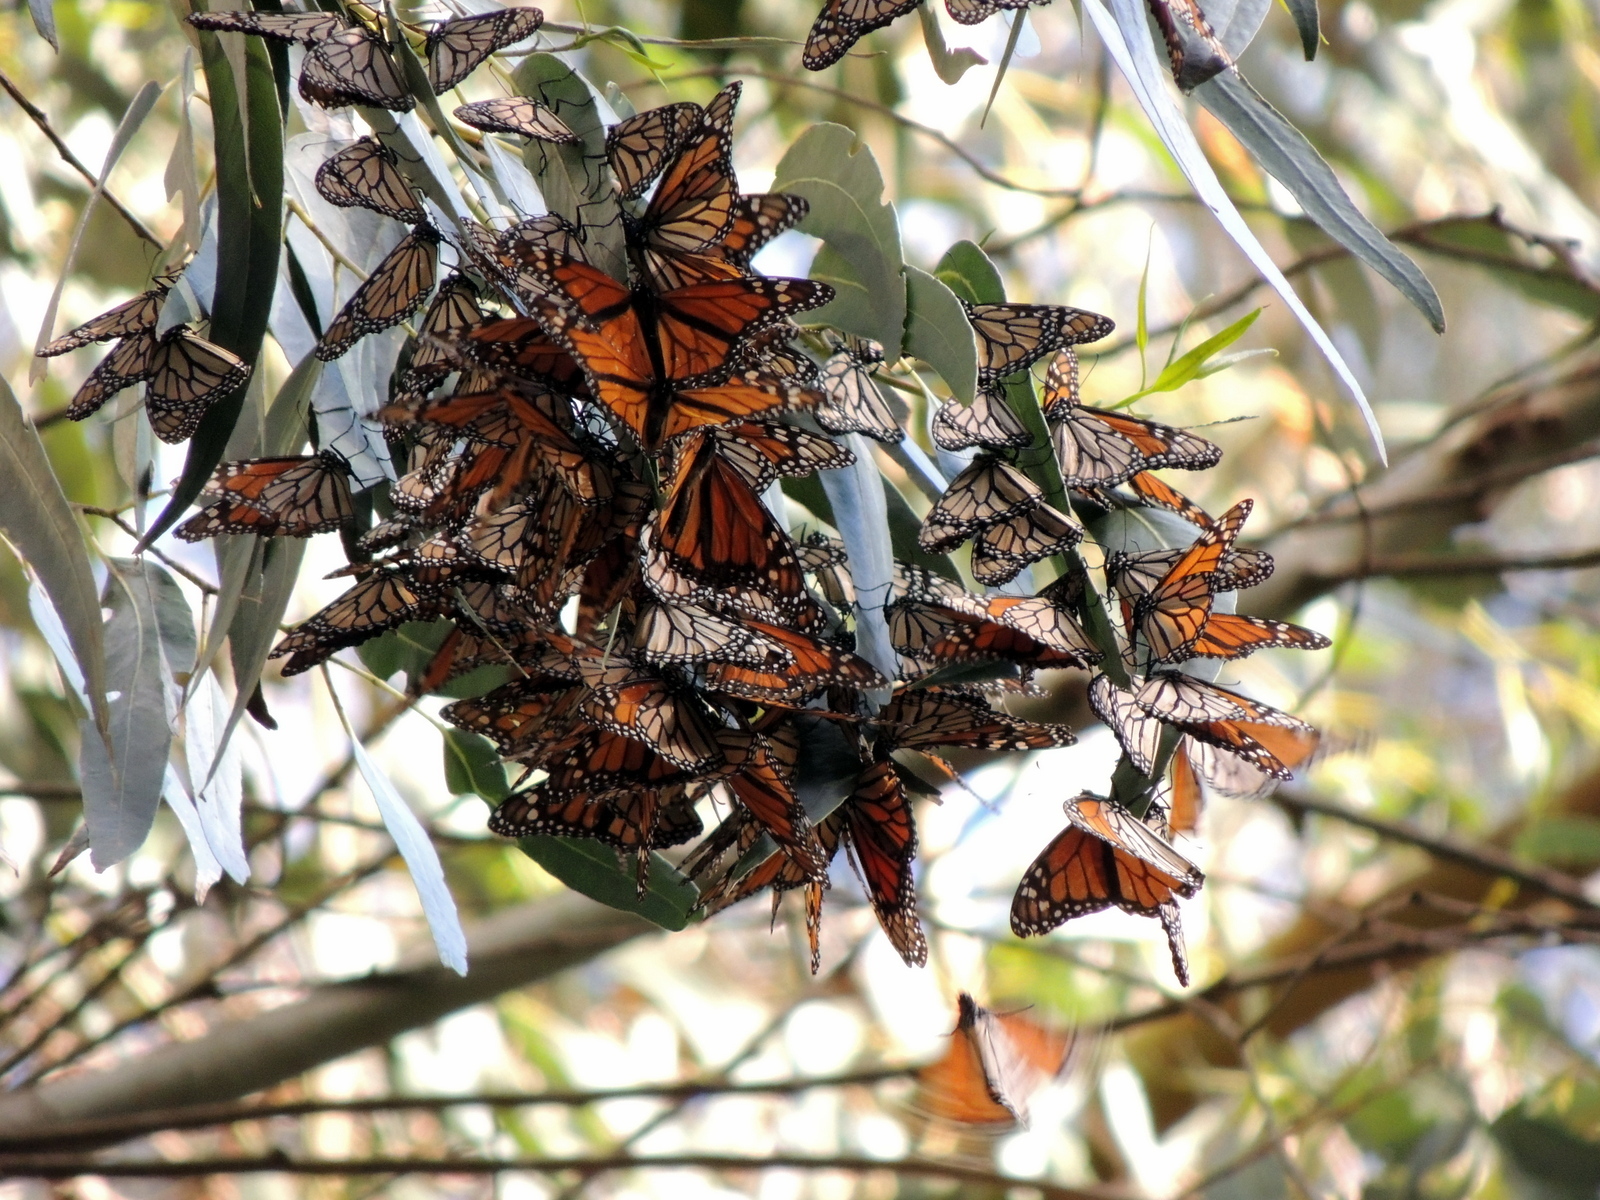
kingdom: Animalia
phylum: Arthropoda
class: Insecta
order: Lepidoptera
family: Nymphalidae
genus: Danaus
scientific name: Danaus plexippus
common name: Monarch
